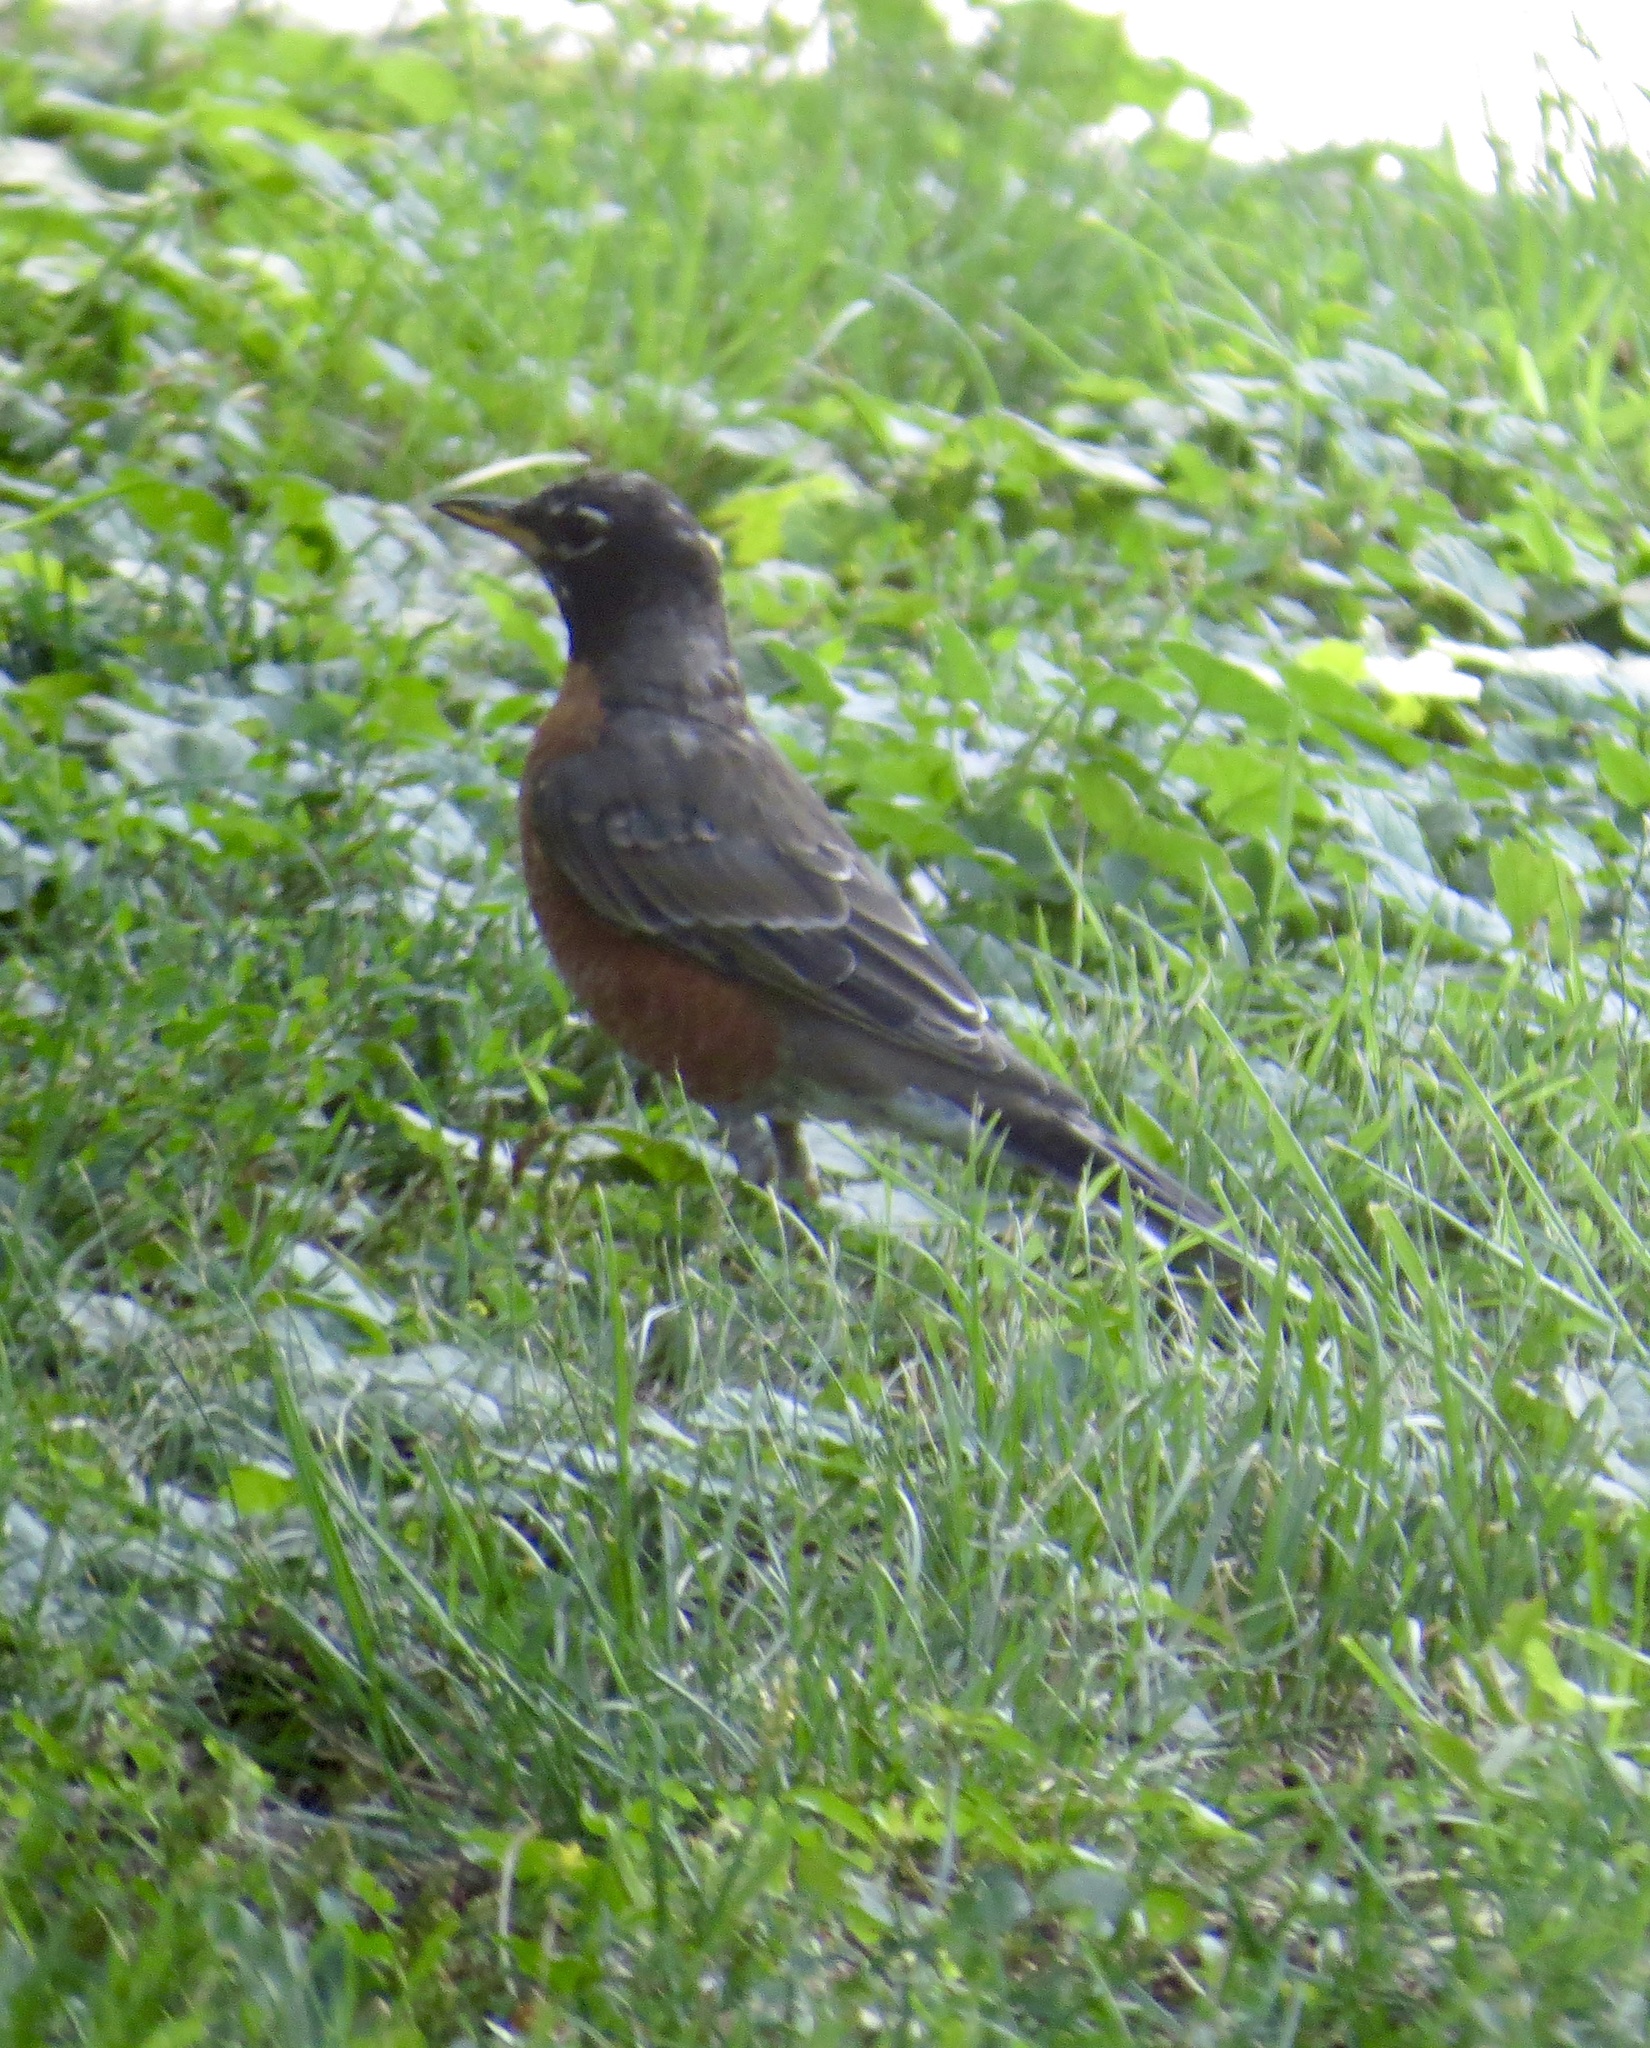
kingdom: Animalia
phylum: Chordata
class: Aves
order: Passeriformes
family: Turdidae
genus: Turdus
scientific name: Turdus migratorius
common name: American robin
